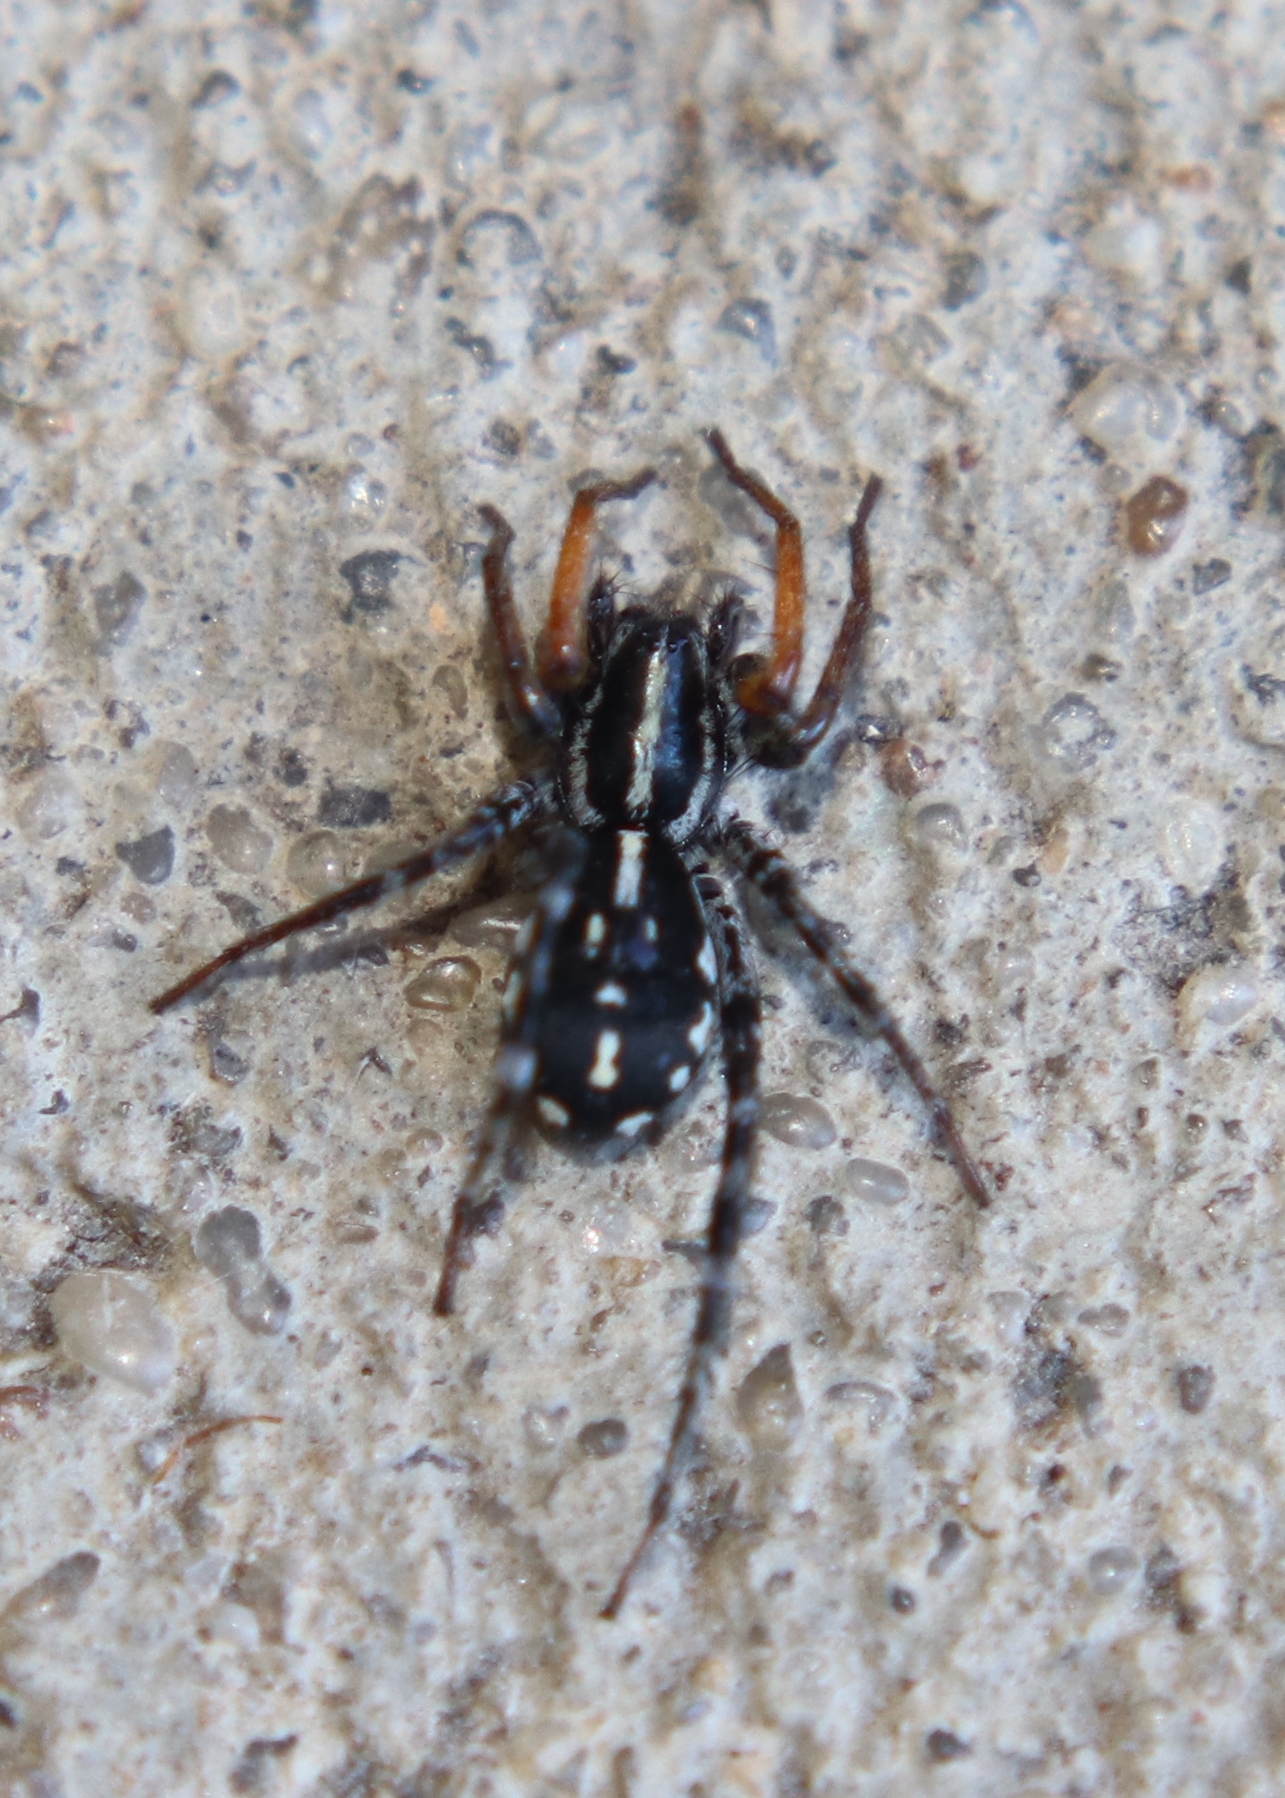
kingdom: Animalia
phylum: Arthropoda
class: Arachnida
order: Araneae
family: Corinnidae
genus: Nyssus
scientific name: Nyssus coloripes
